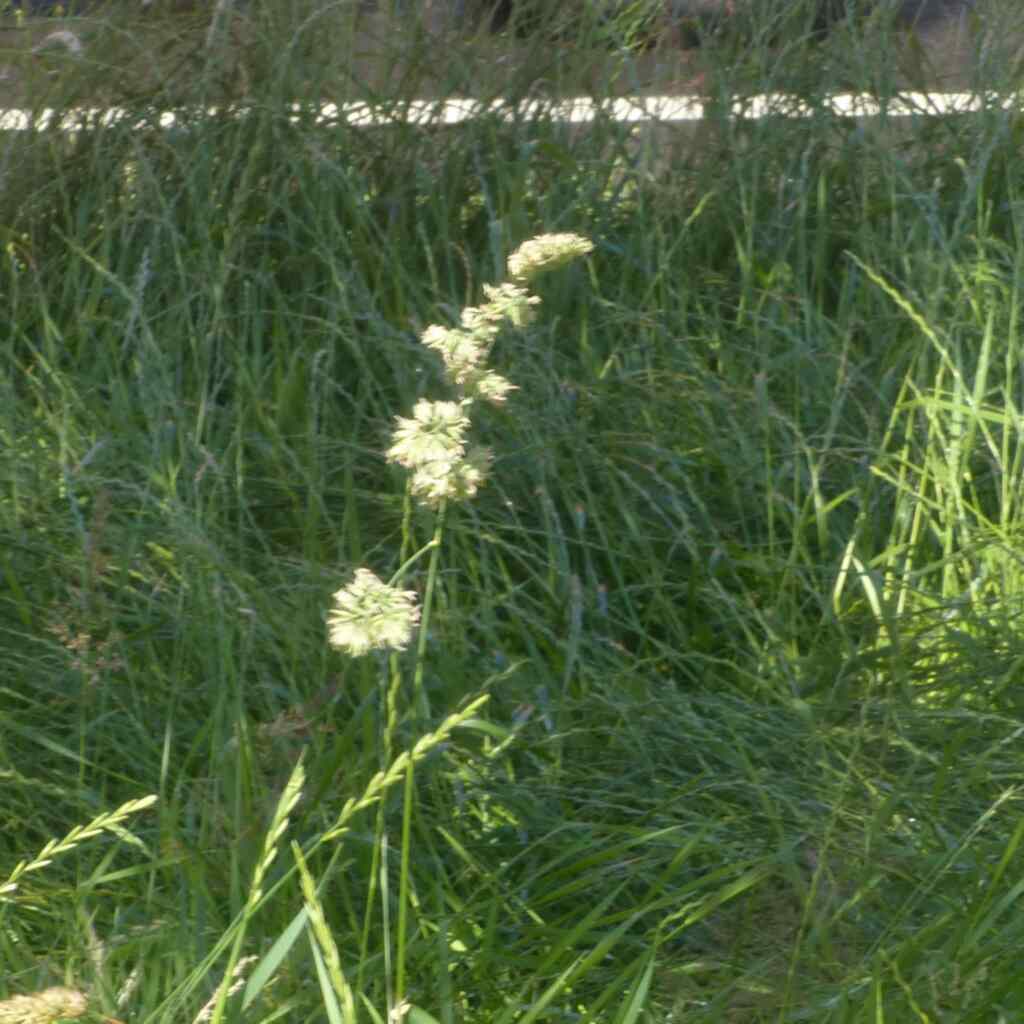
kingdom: Plantae
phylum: Tracheophyta
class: Liliopsida
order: Poales
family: Poaceae
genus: Dactylis
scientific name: Dactylis glomerata
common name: Orchardgrass
